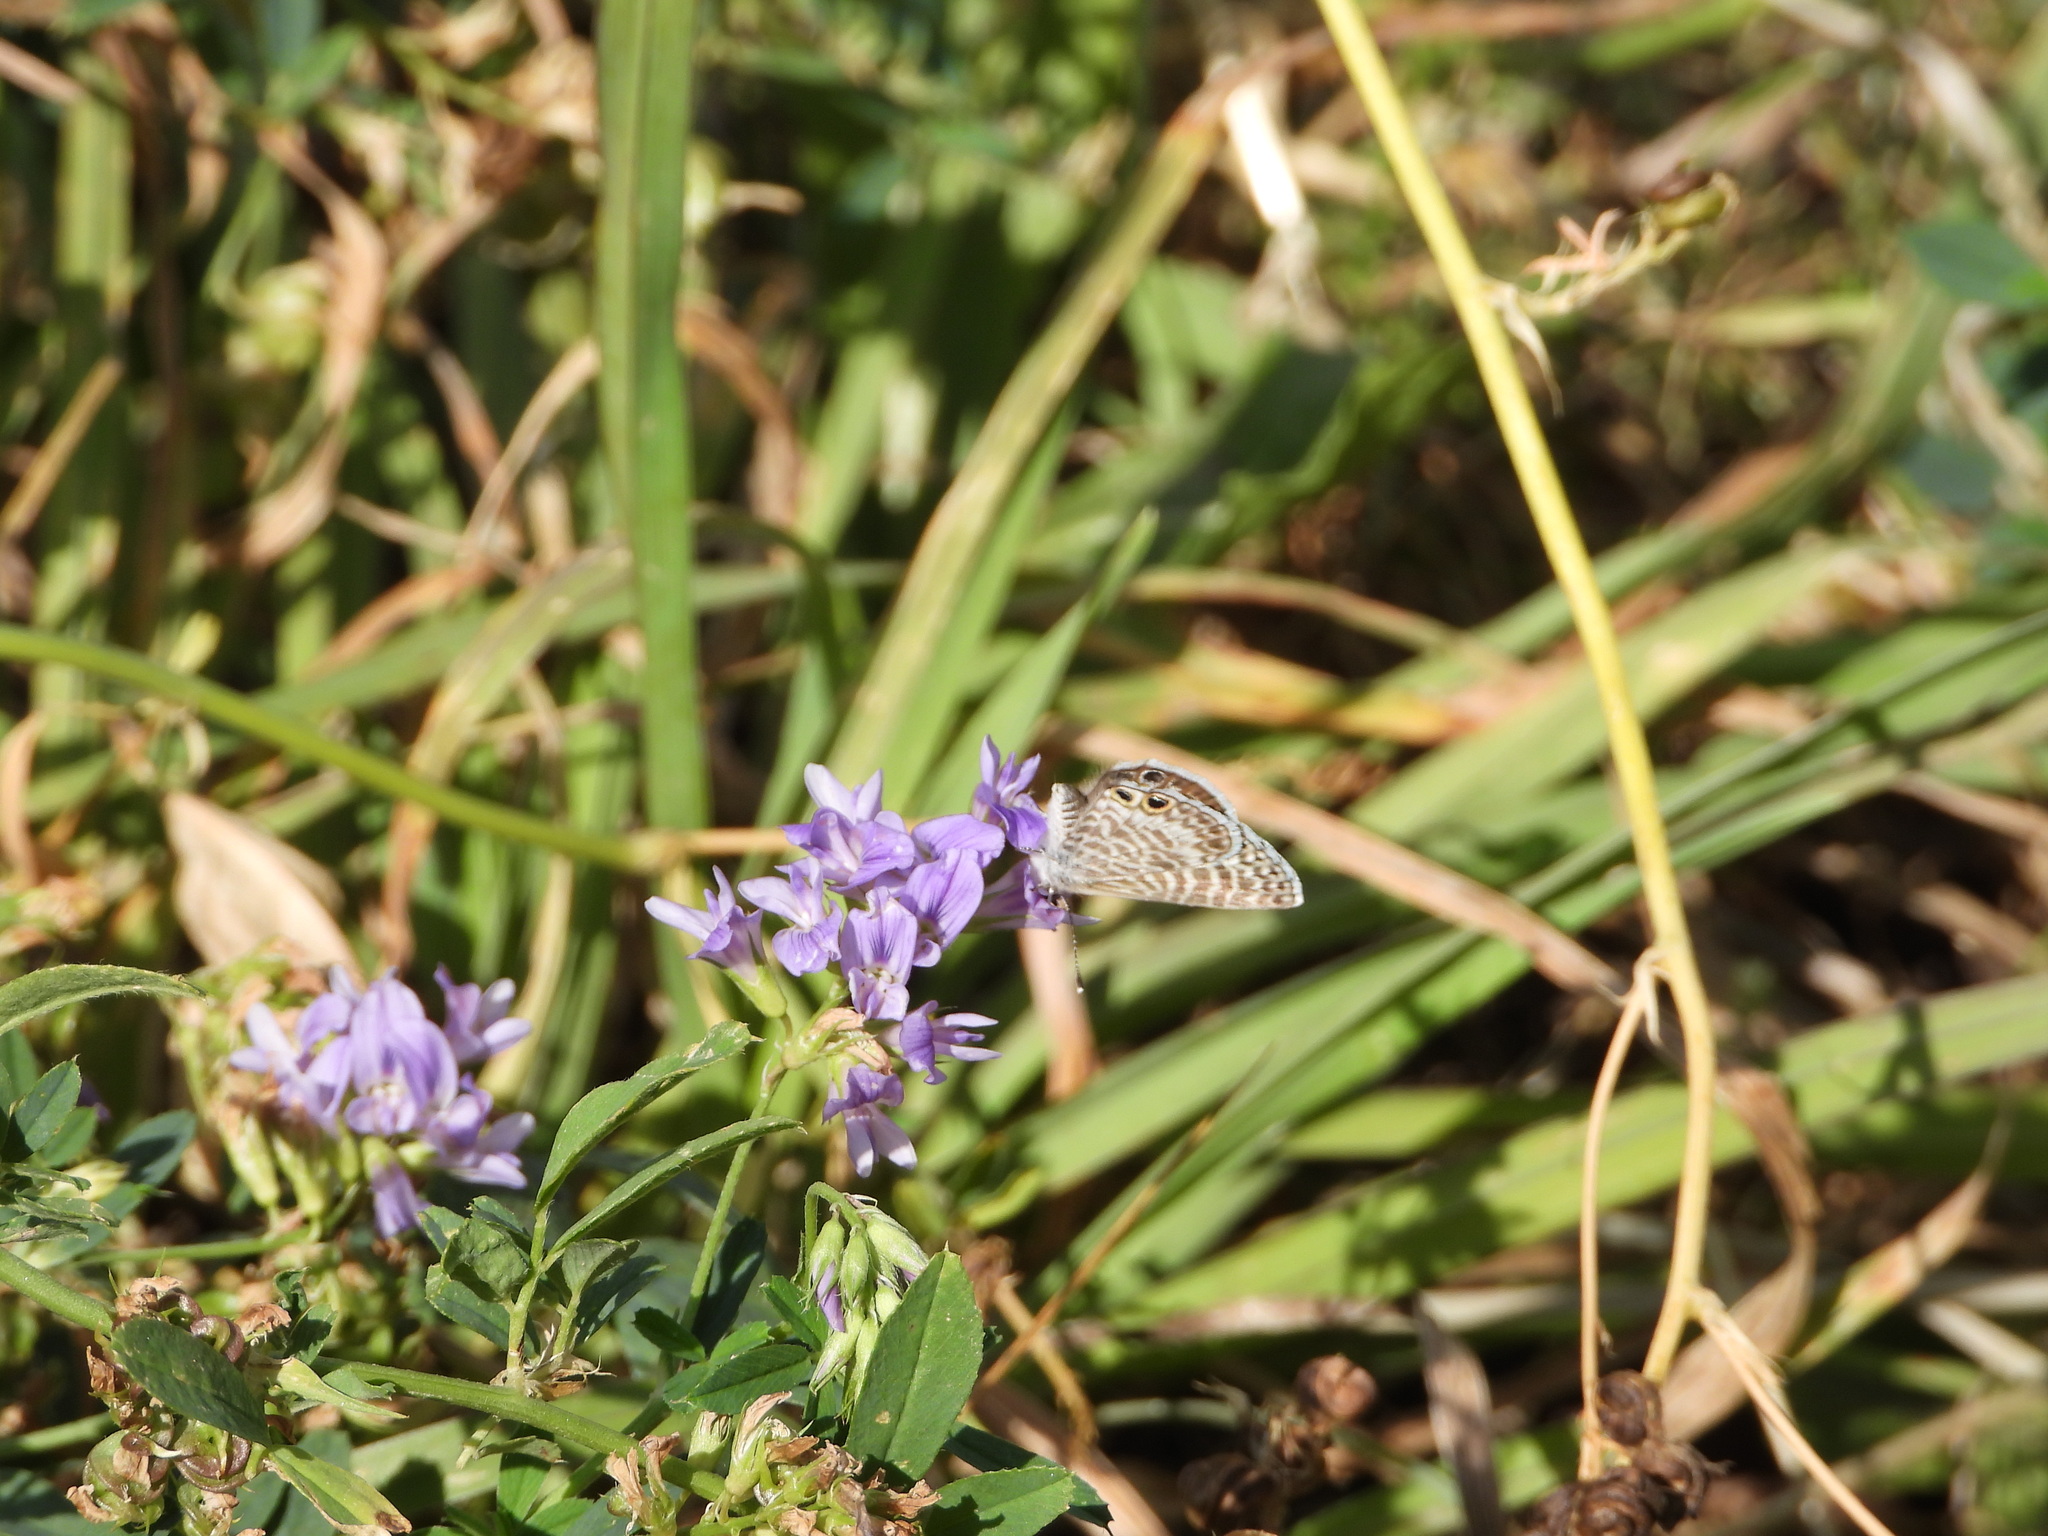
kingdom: Animalia
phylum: Arthropoda
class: Insecta
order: Lepidoptera
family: Lycaenidae
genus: Leptotes
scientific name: Leptotes marina
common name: Marine blue
